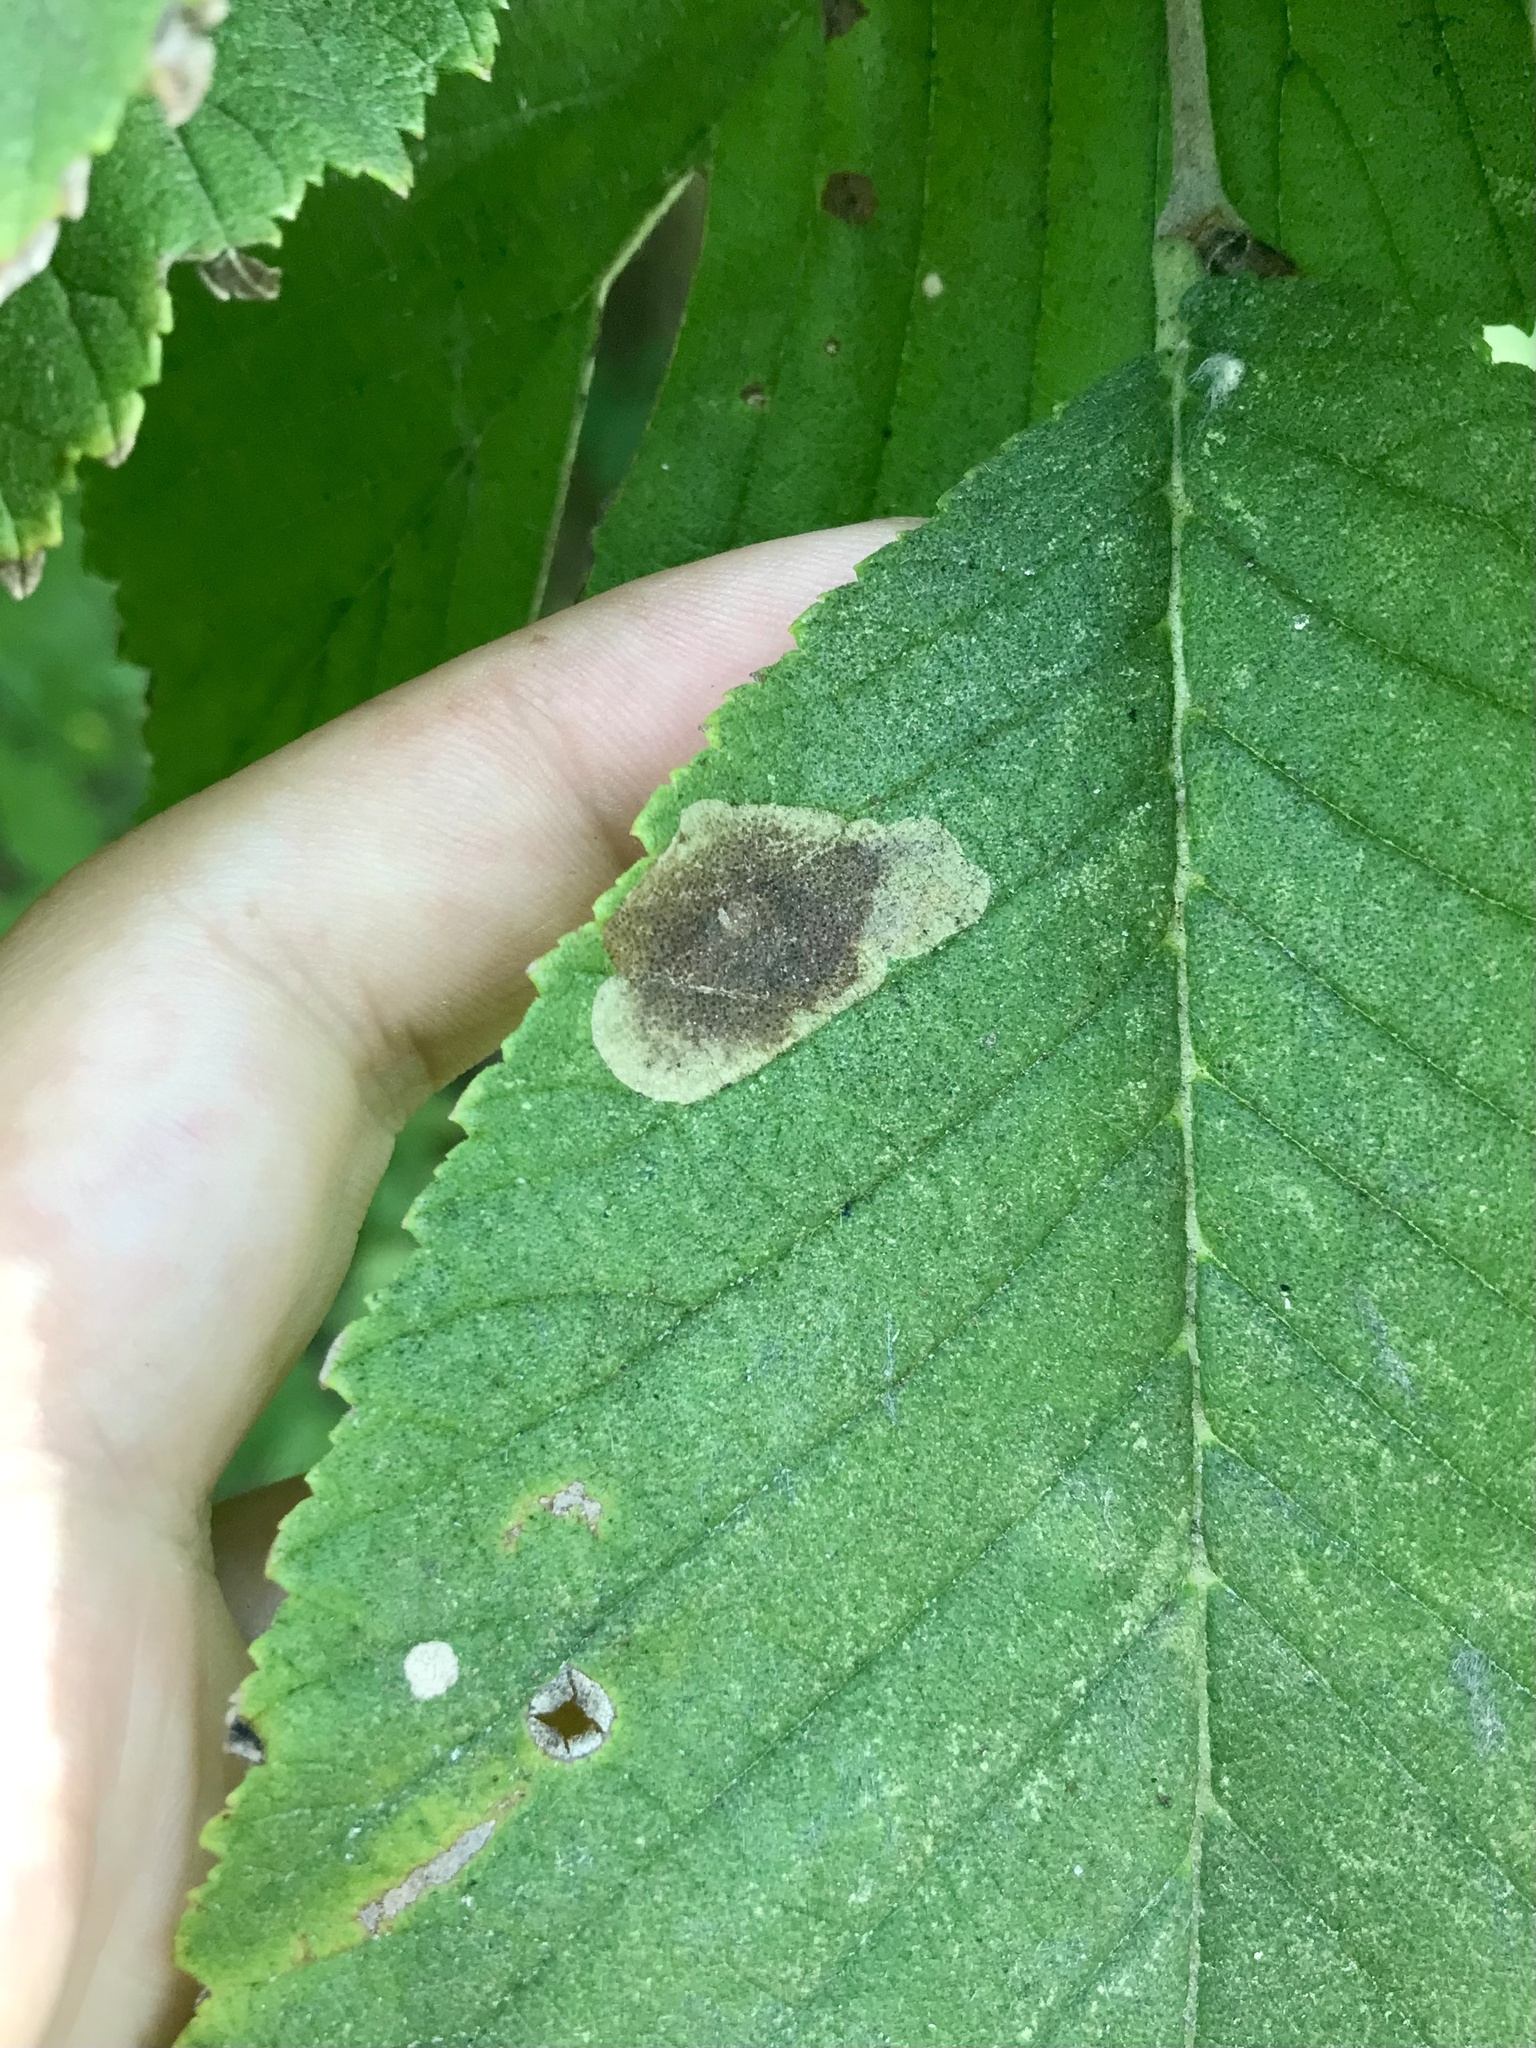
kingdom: Animalia
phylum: Arthropoda
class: Insecta
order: Lepidoptera
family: Gracillariidae
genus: Cameraria
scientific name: Cameraria ulmella
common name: Elm leafminer
